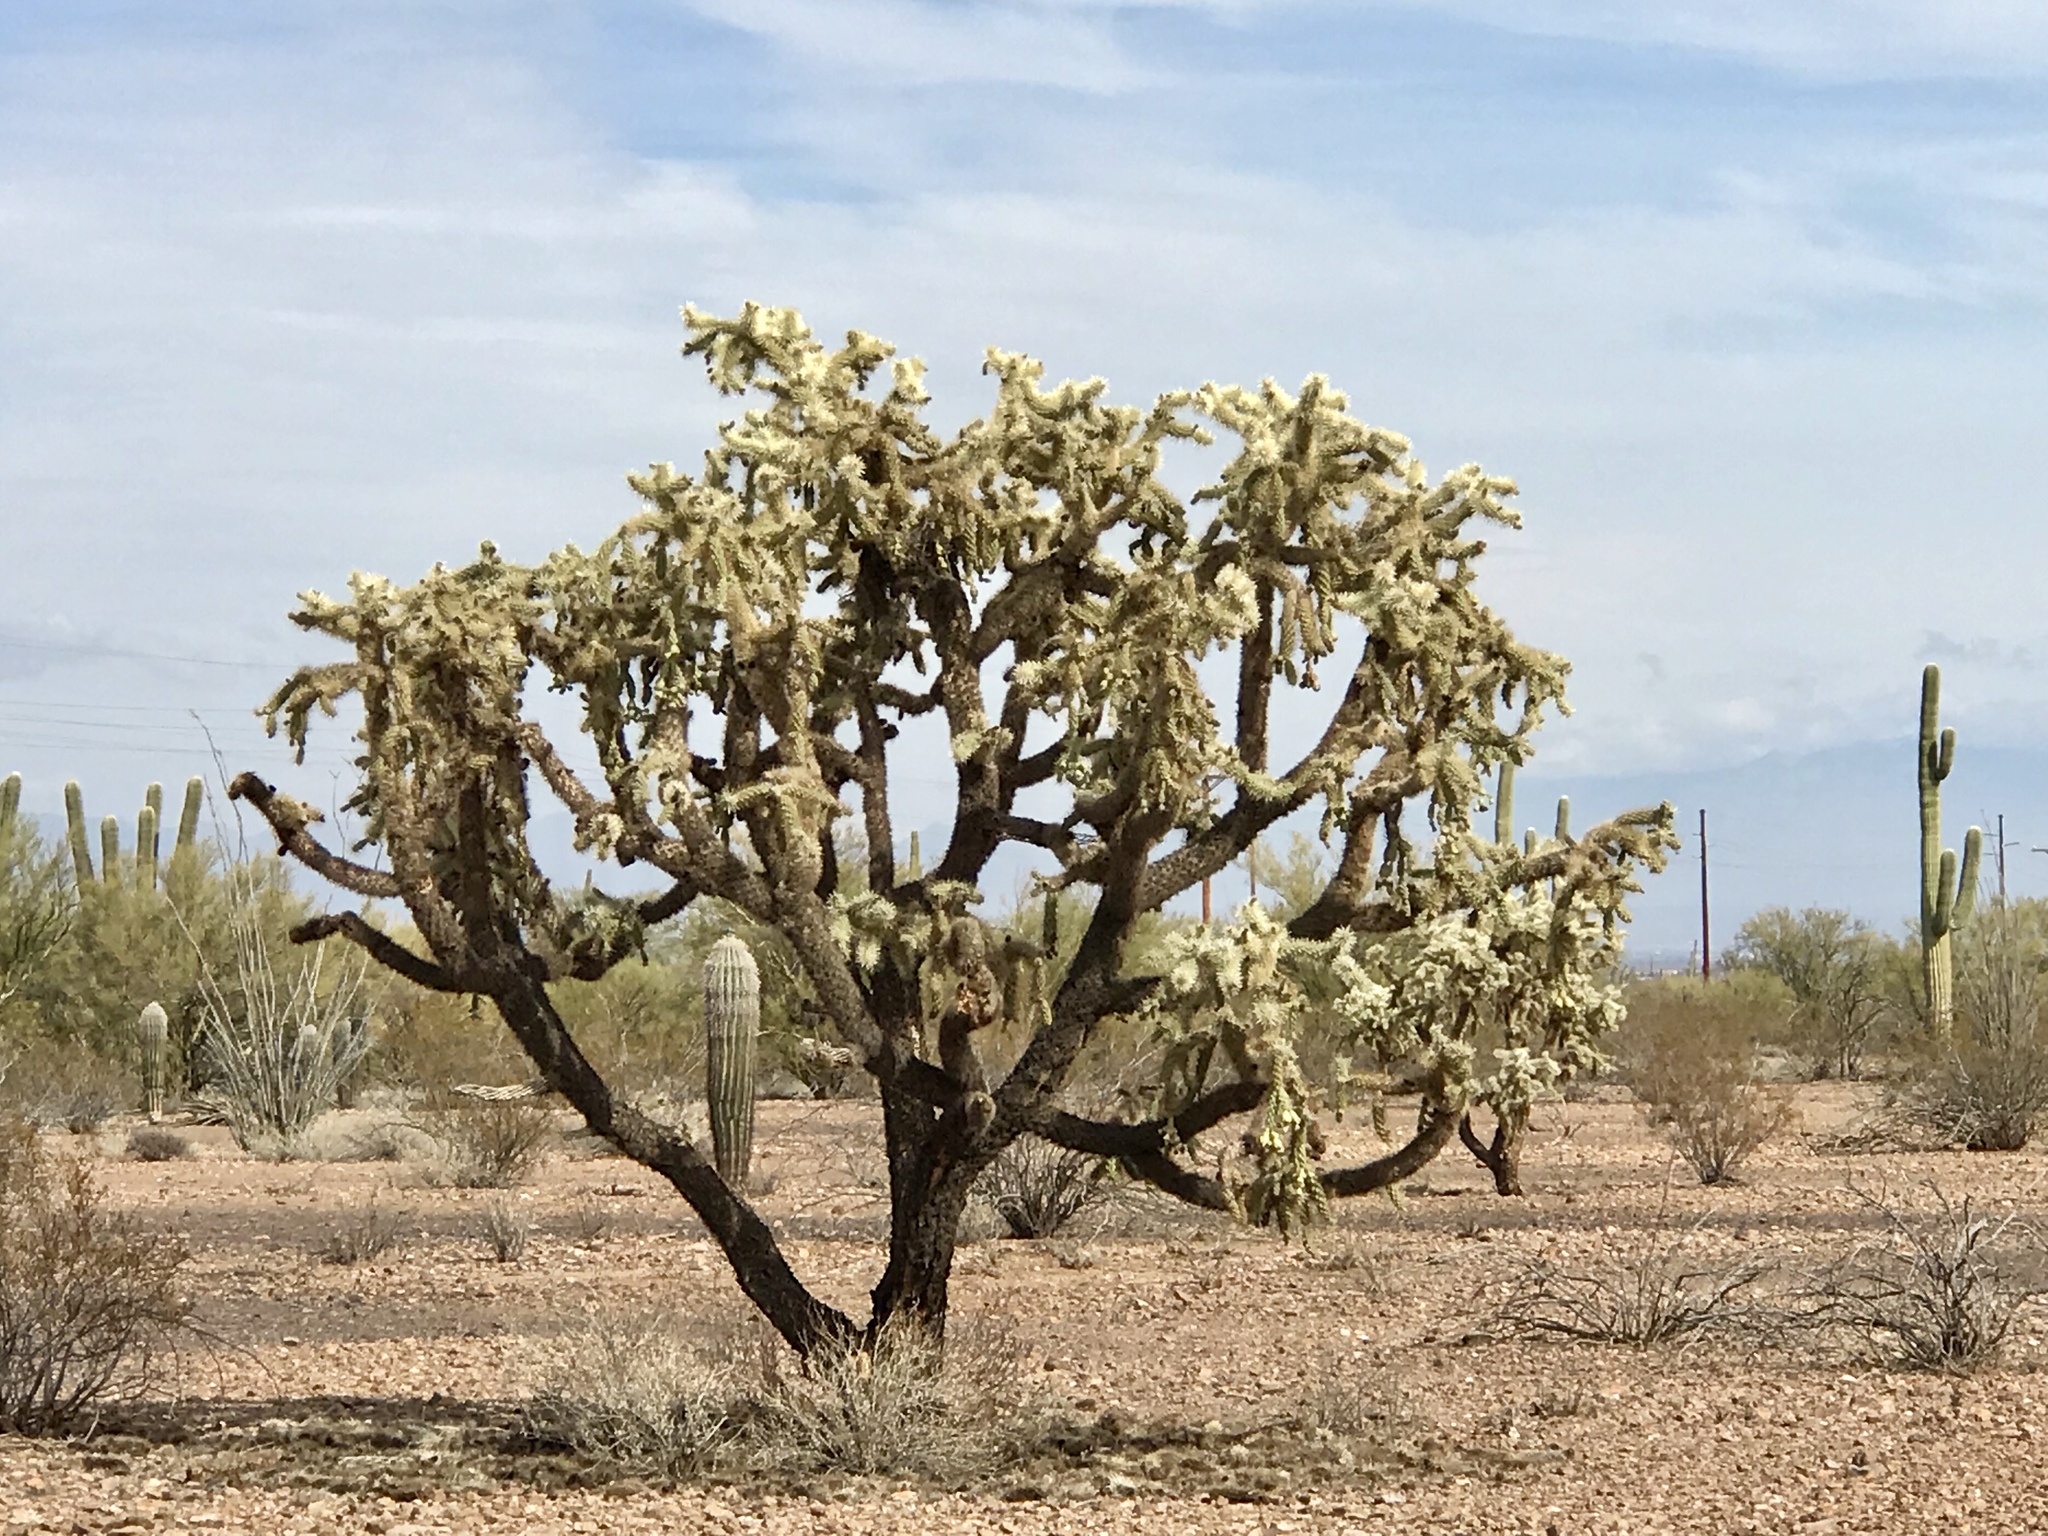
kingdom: Plantae
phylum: Tracheophyta
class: Magnoliopsida
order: Caryophyllales
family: Cactaceae
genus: Cylindropuntia
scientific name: Cylindropuntia fulgida
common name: Jumping cholla
